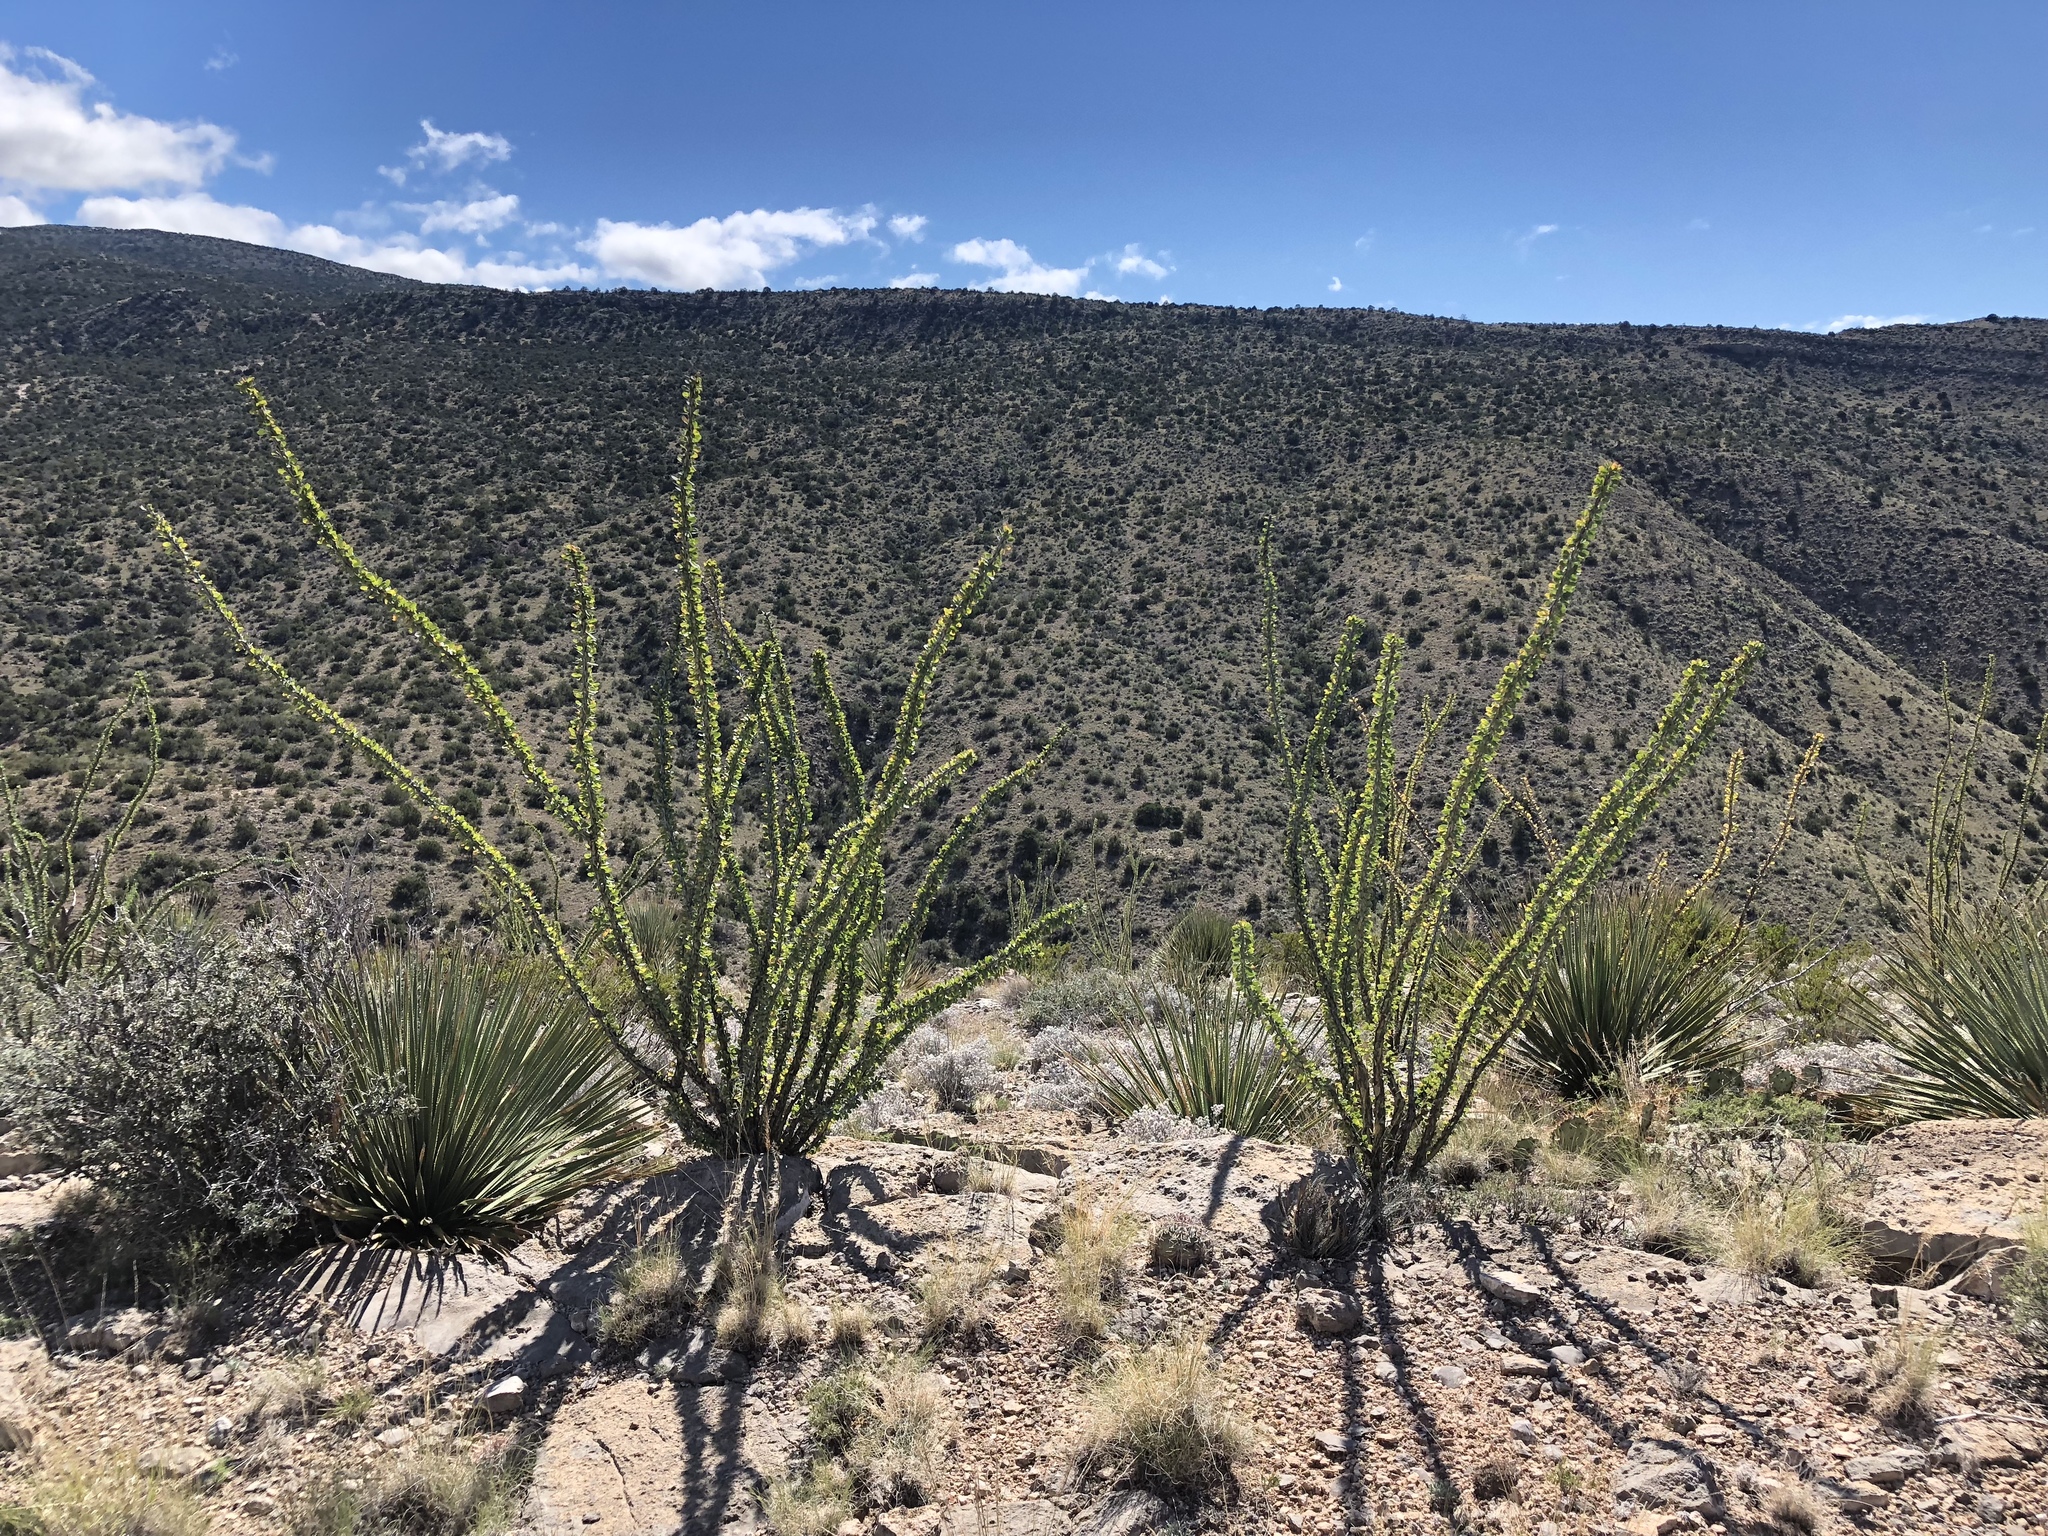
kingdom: Plantae
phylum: Tracheophyta
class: Magnoliopsida
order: Ericales
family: Fouquieriaceae
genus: Fouquieria
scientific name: Fouquieria splendens
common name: Vine-cactus
